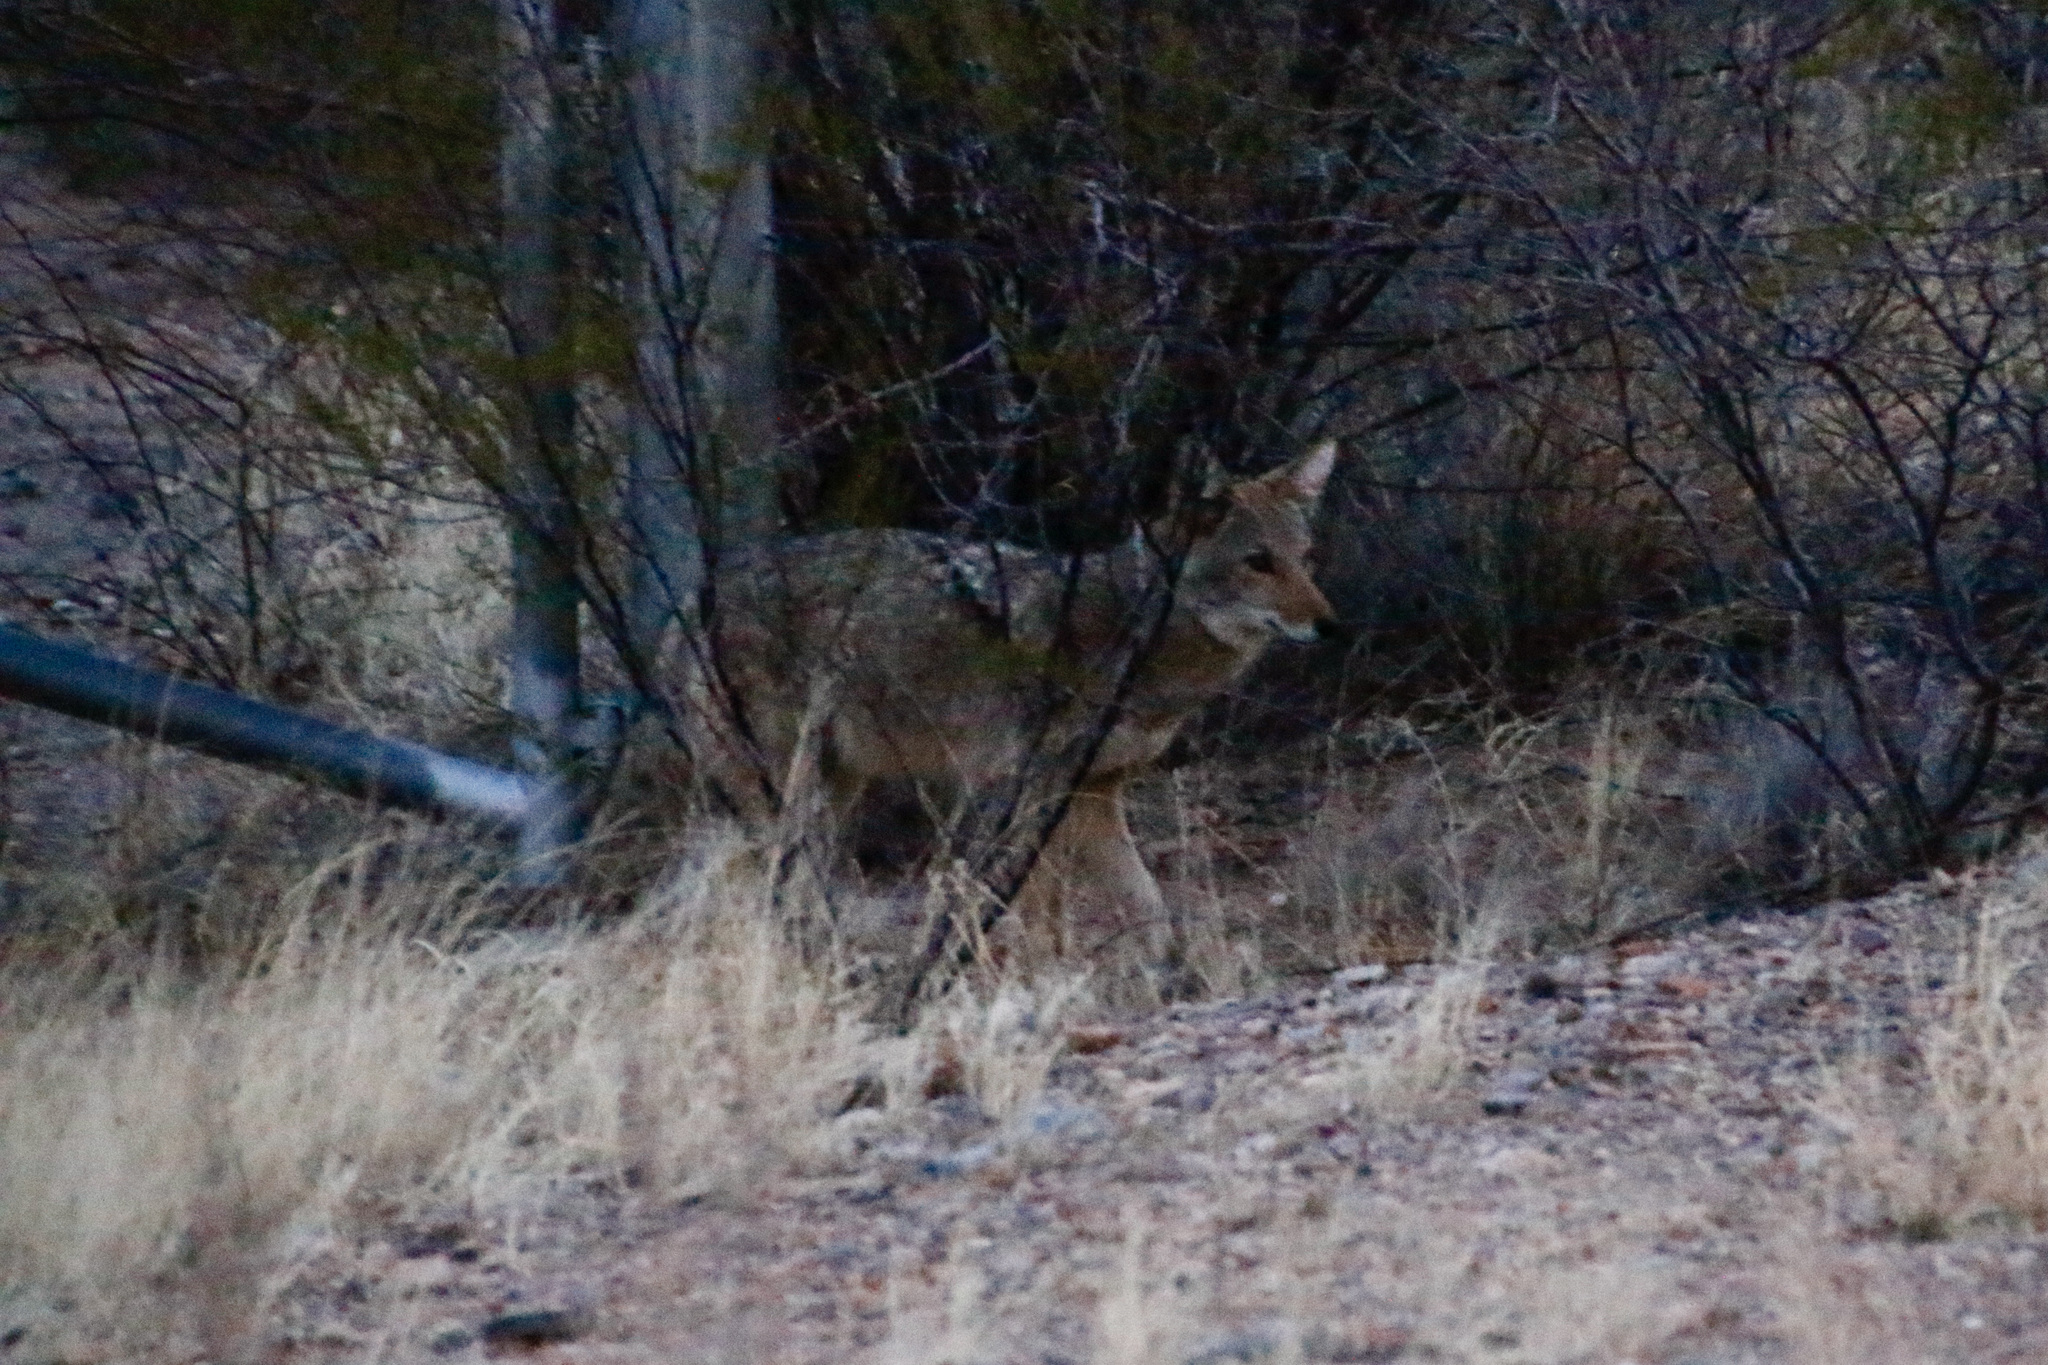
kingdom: Animalia
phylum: Chordata
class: Mammalia
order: Carnivora
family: Canidae
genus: Canis
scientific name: Canis latrans
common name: Coyote
